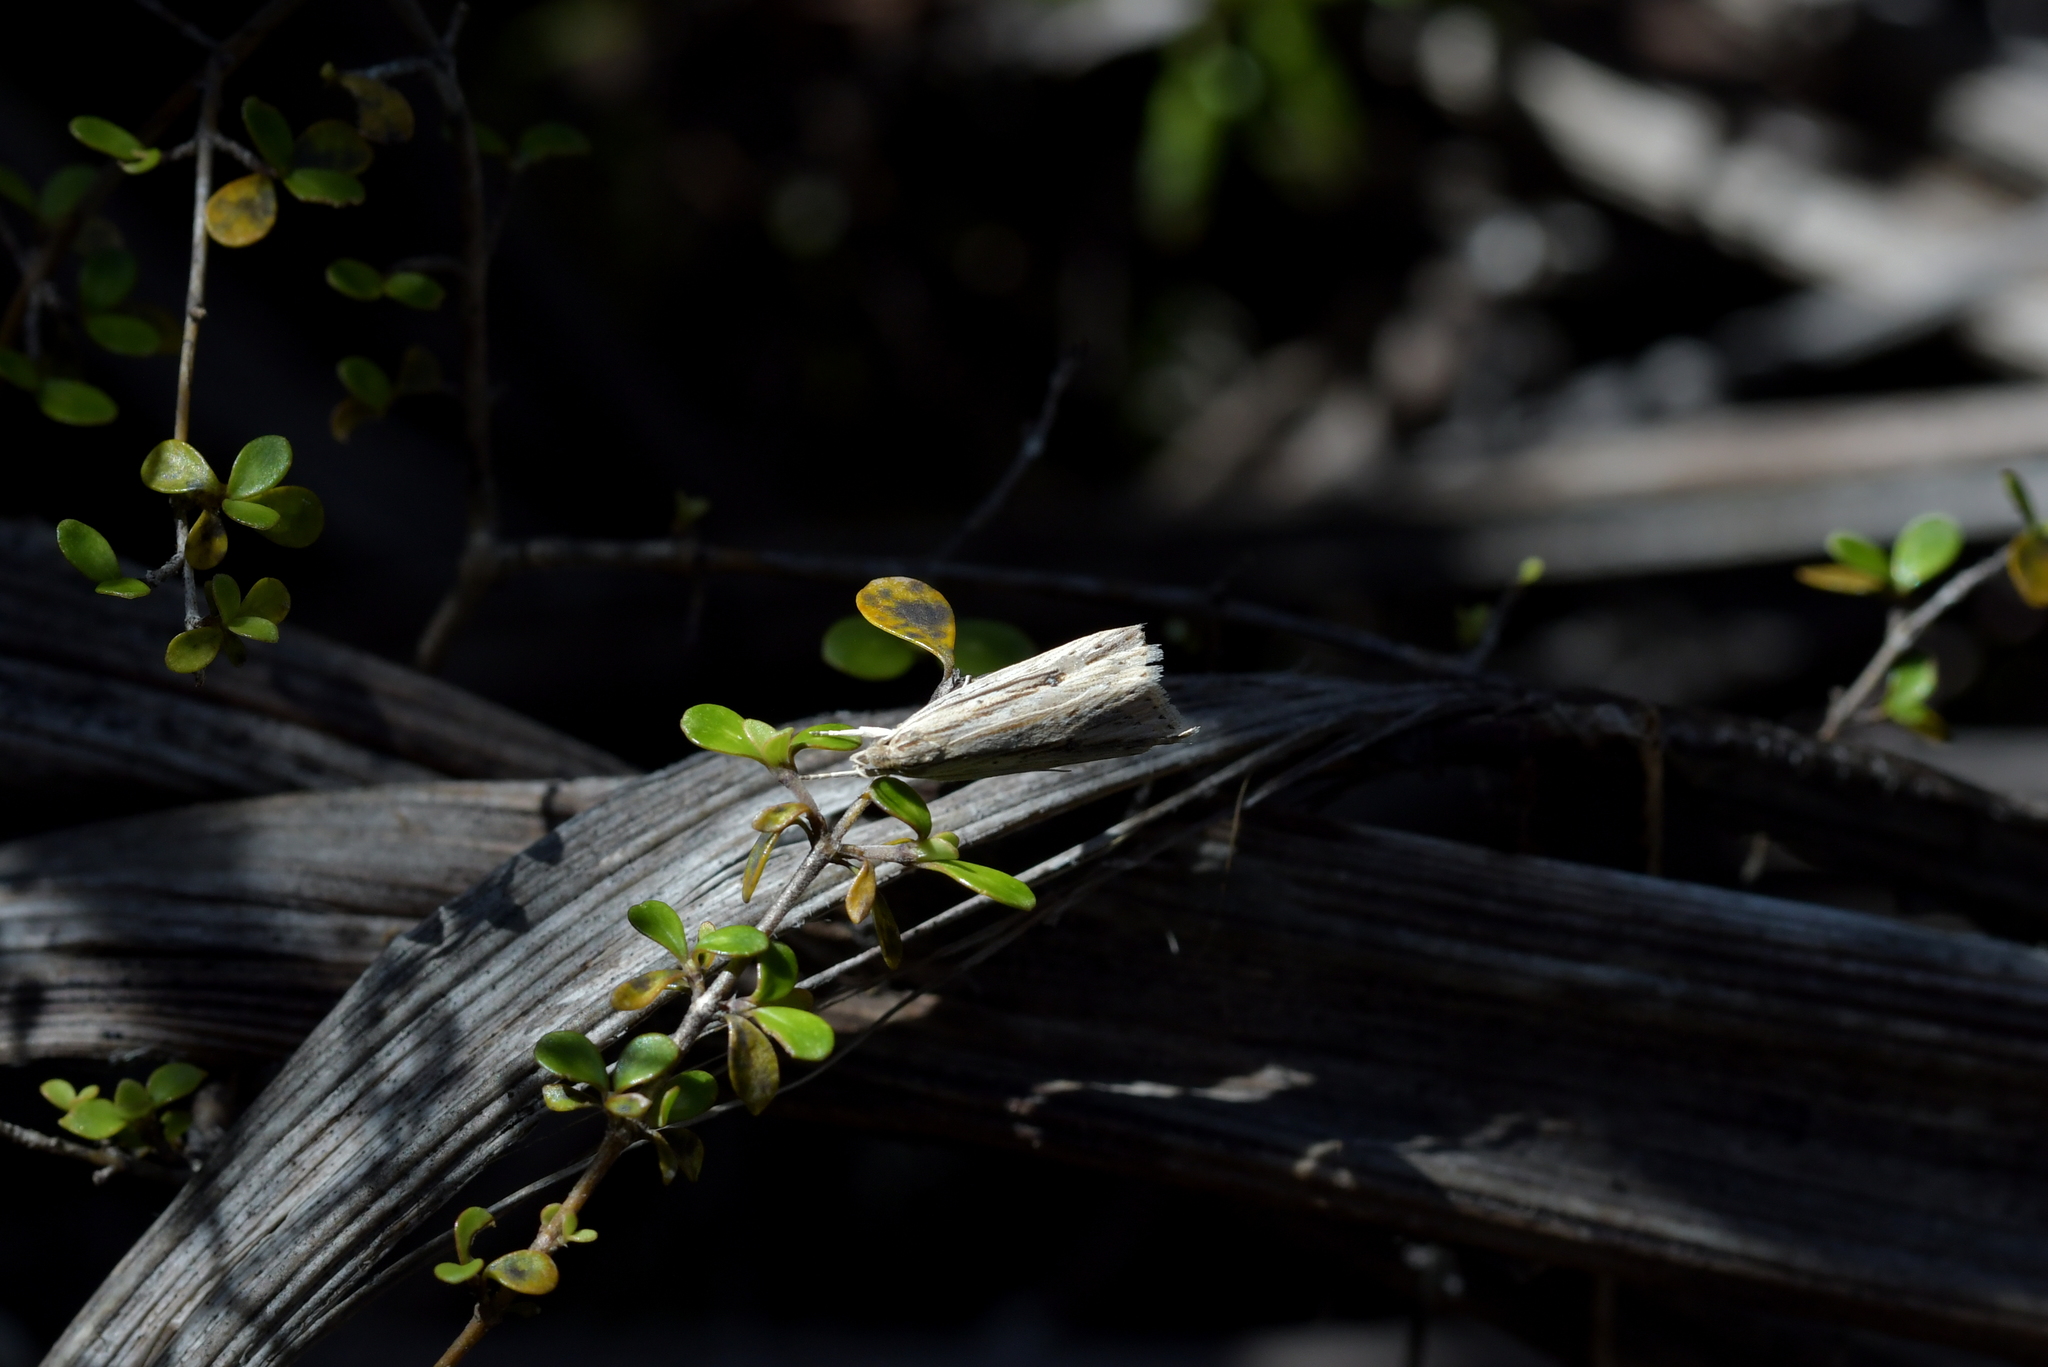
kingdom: Animalia
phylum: Arthropoda
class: Insecta
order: Lepidoptera
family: Xyloryctidae
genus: Donacostola
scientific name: Donacostola notabilis
